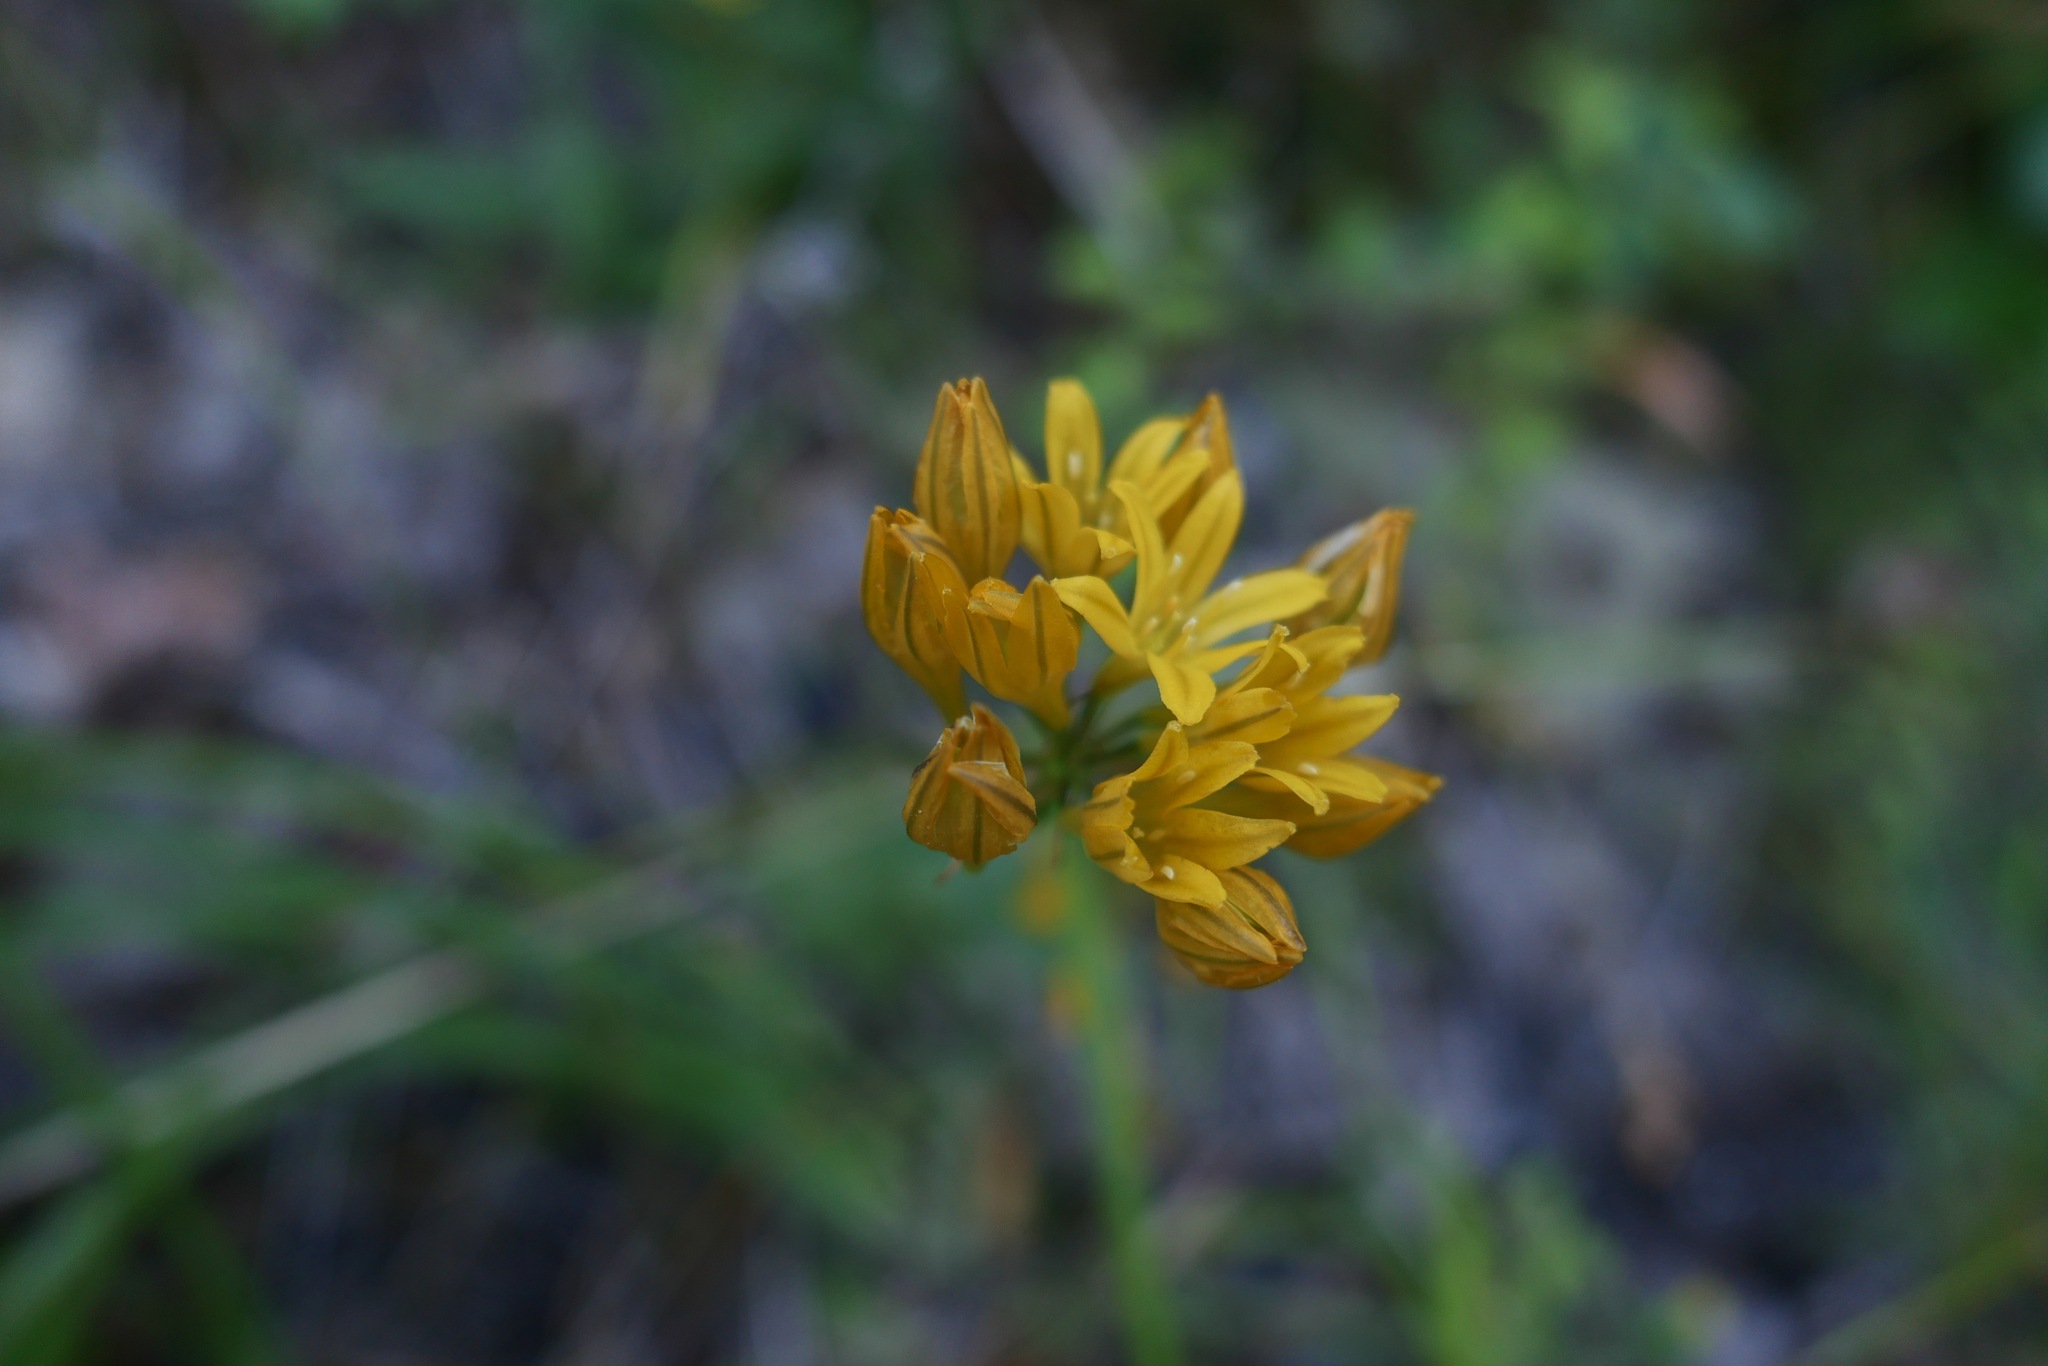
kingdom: Plantae
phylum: Tracheophyta
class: Liliopsida
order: Asparagales
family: Asparagaceae
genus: Triteleia
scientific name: Triteleia crocea
